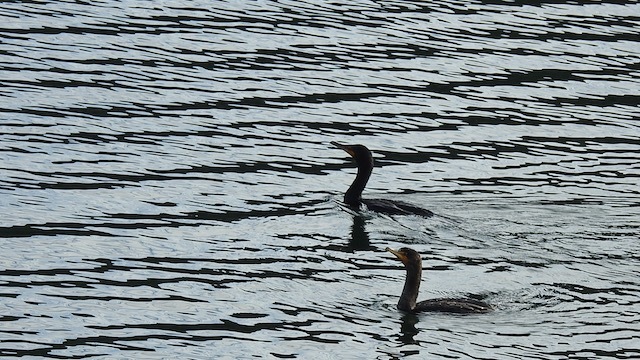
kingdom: Animalia
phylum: Chordata
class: Aves
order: Suliformes
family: Phalacrocoracidae
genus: Phalacrocorax
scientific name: Phalacrocorax auritus
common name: Double-crested cormorant
